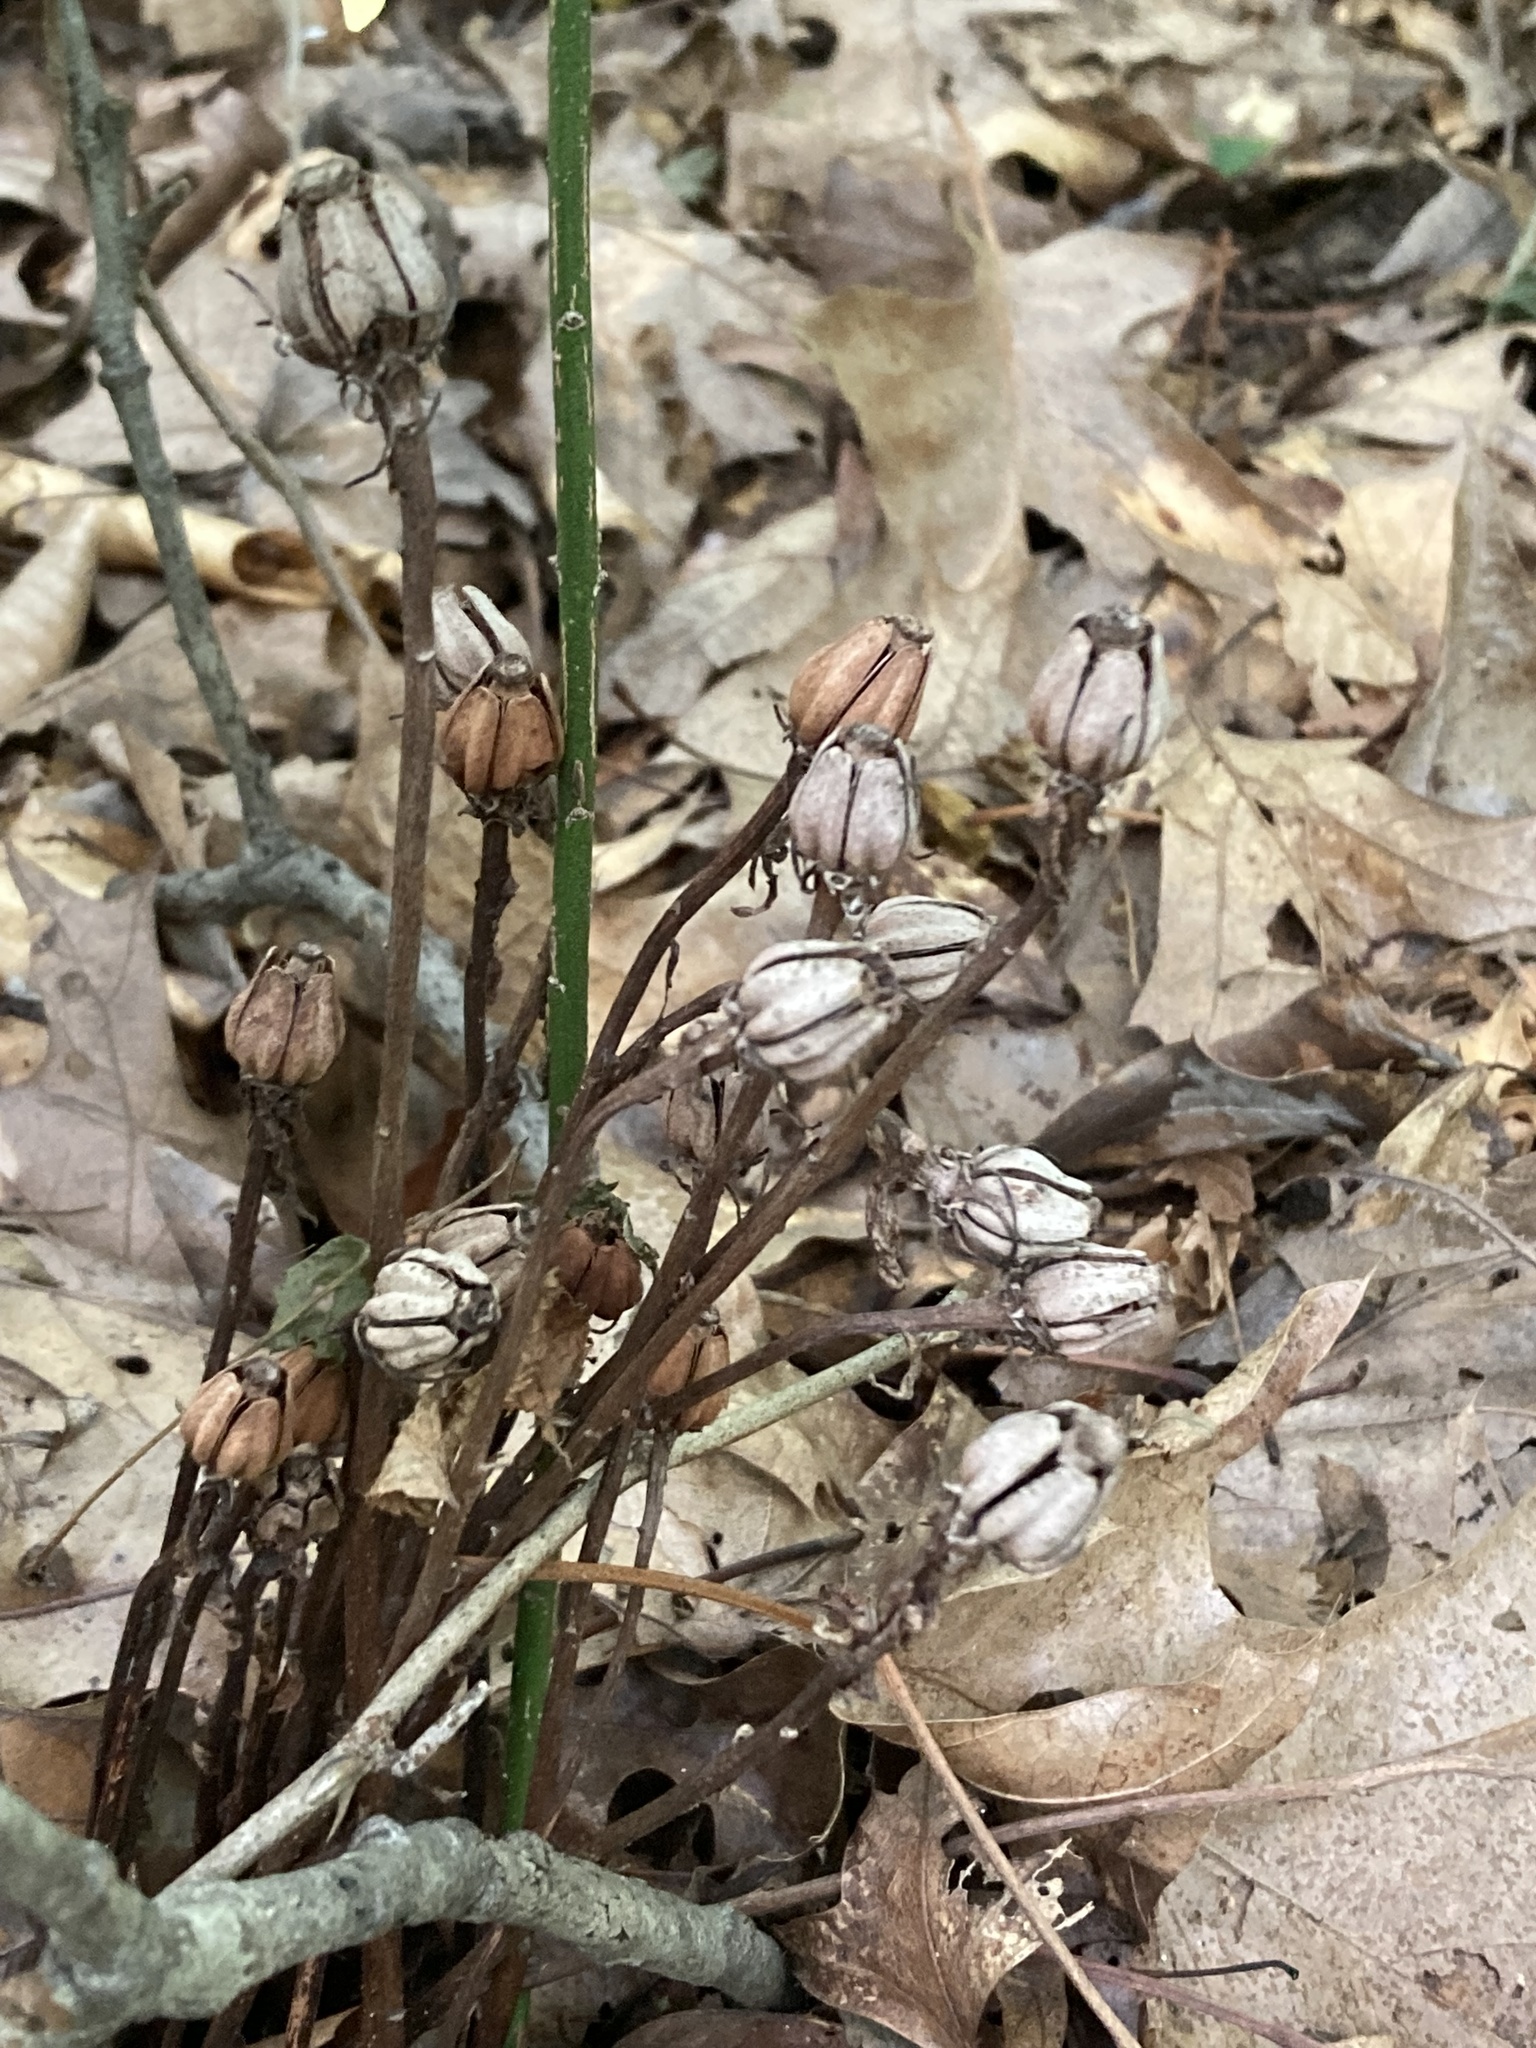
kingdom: Plantae
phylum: Tracheophyta
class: Magnoliopsida
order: Ericales
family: Ericaceae
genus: Monotropa
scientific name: Monotropa uniflora
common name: Convulsion root
